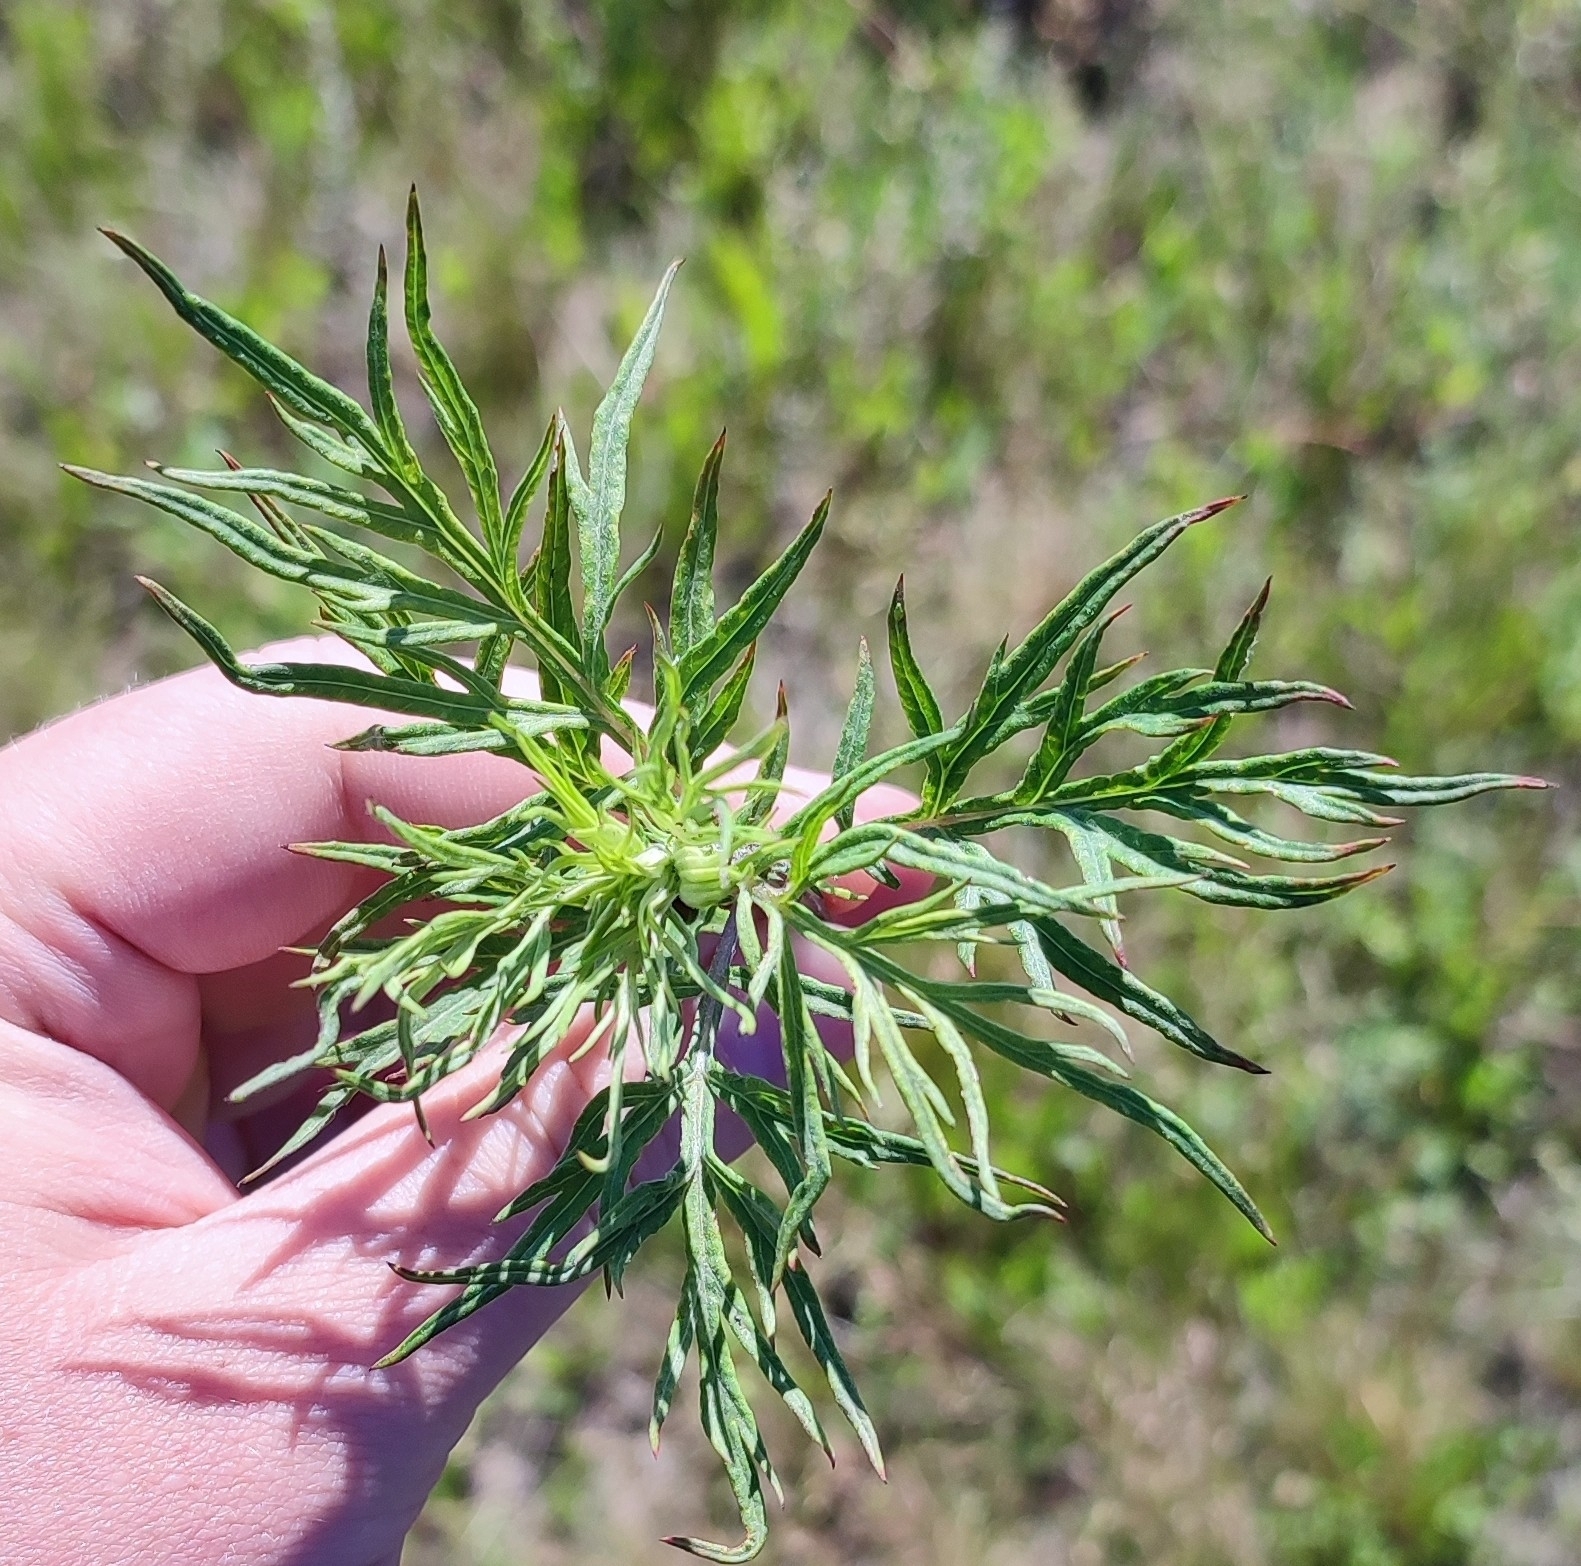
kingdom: Plantae
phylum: Tracheophyta
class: Magnoliopsida
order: Asterales
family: Asteraceae
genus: Artemisia
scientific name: Artemisia vulgaris
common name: Mugwort
